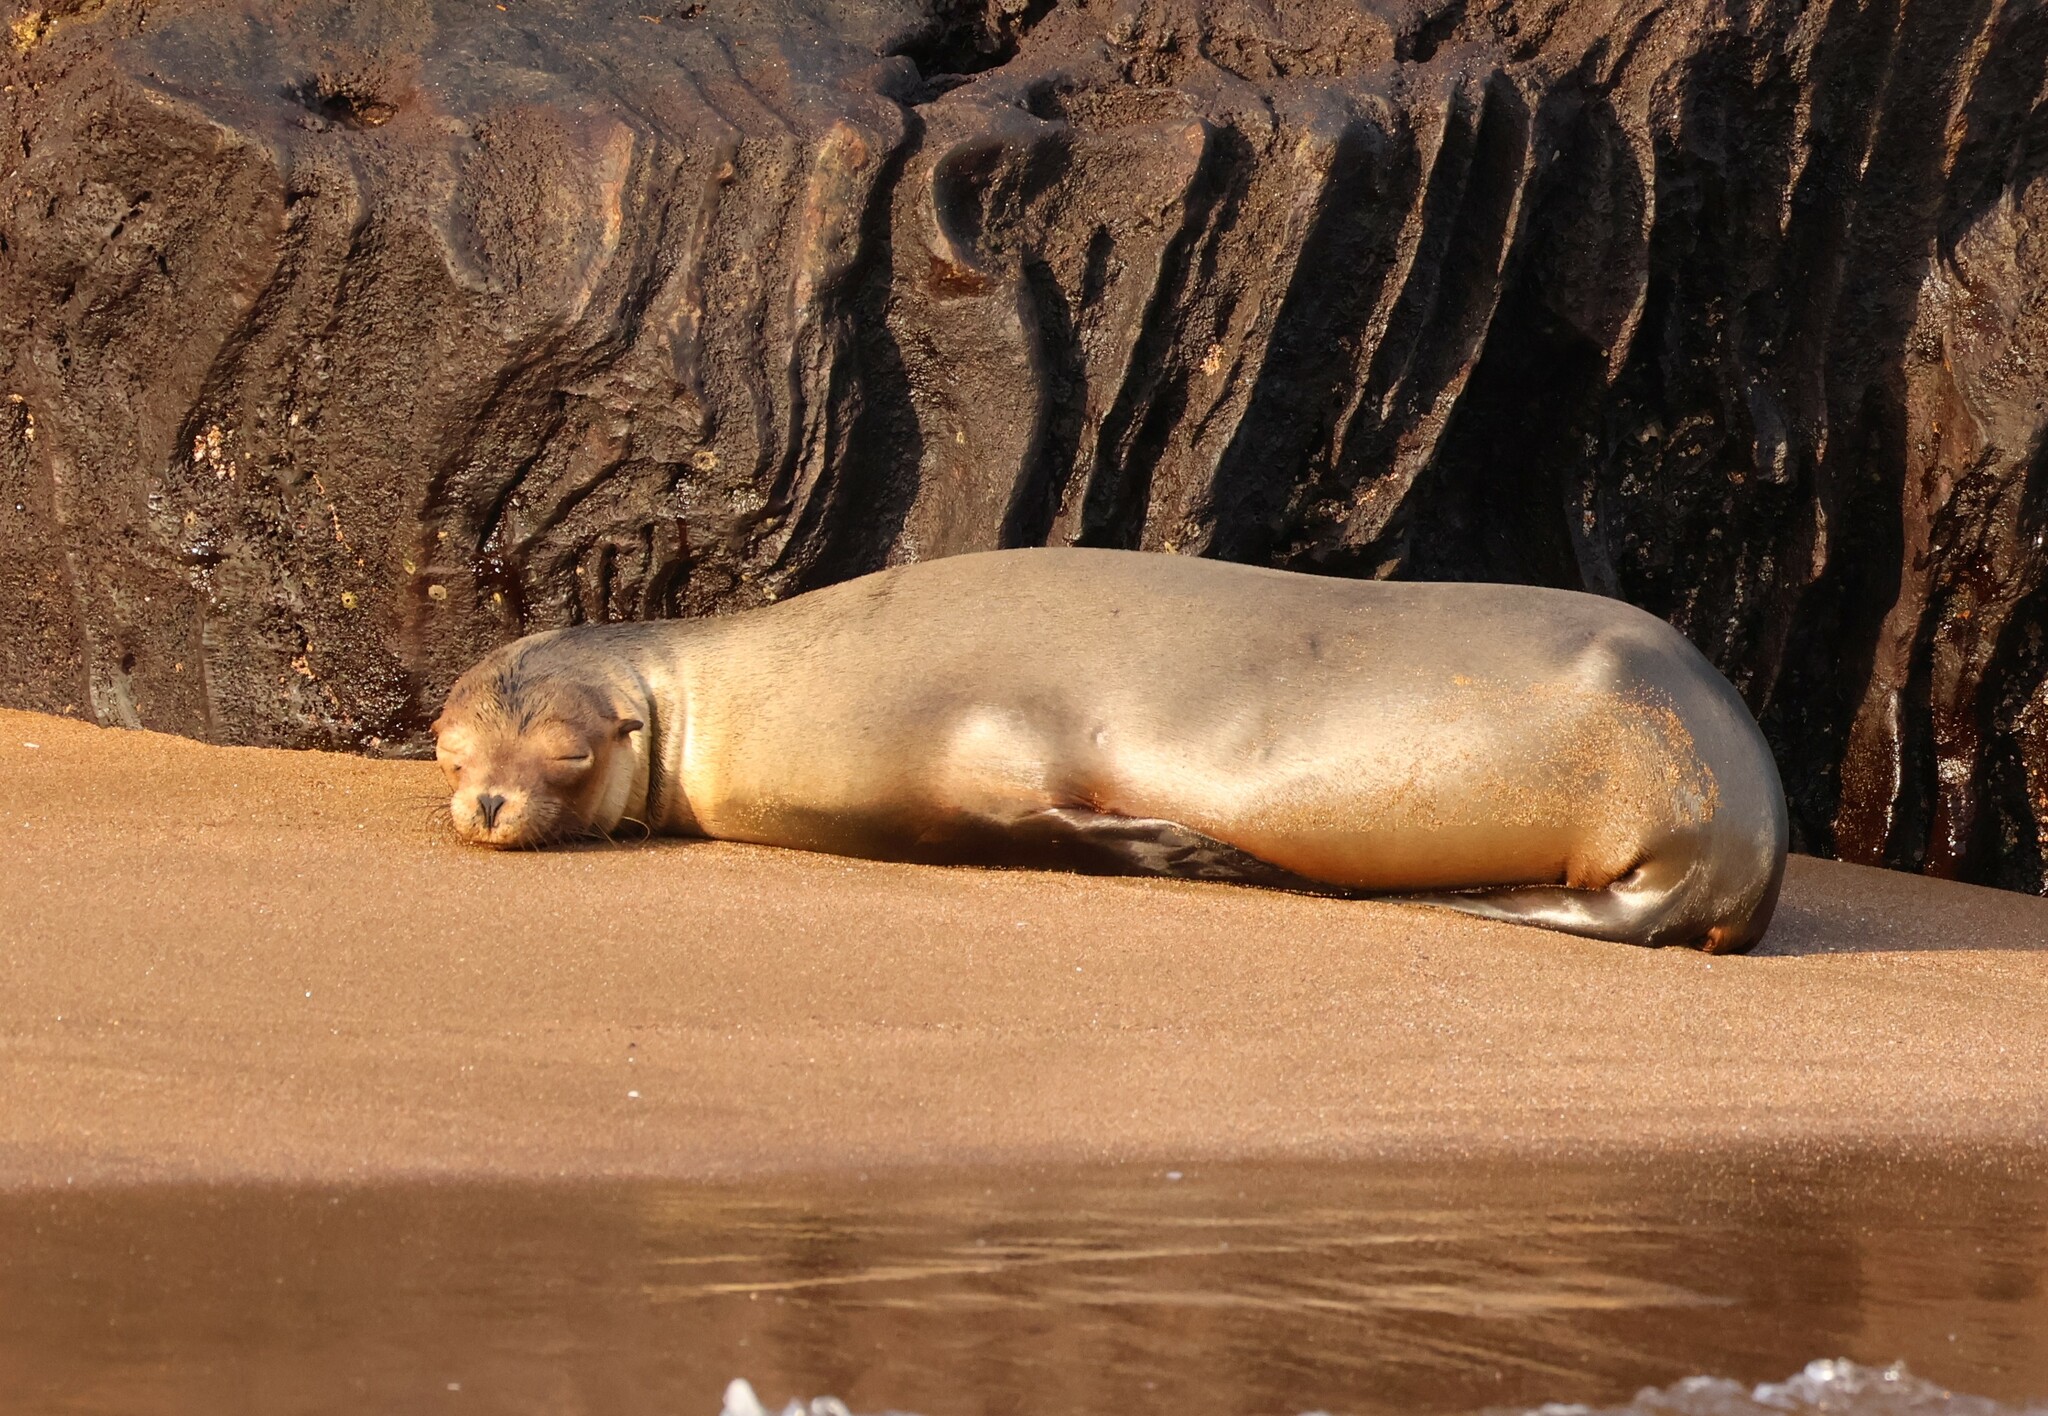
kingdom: Animalia
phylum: Chordata
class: Mammalia
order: Carnivora
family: Otariidae
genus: Zalophus
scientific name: Zalophus wollebaeki
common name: Galapagos sea lion
